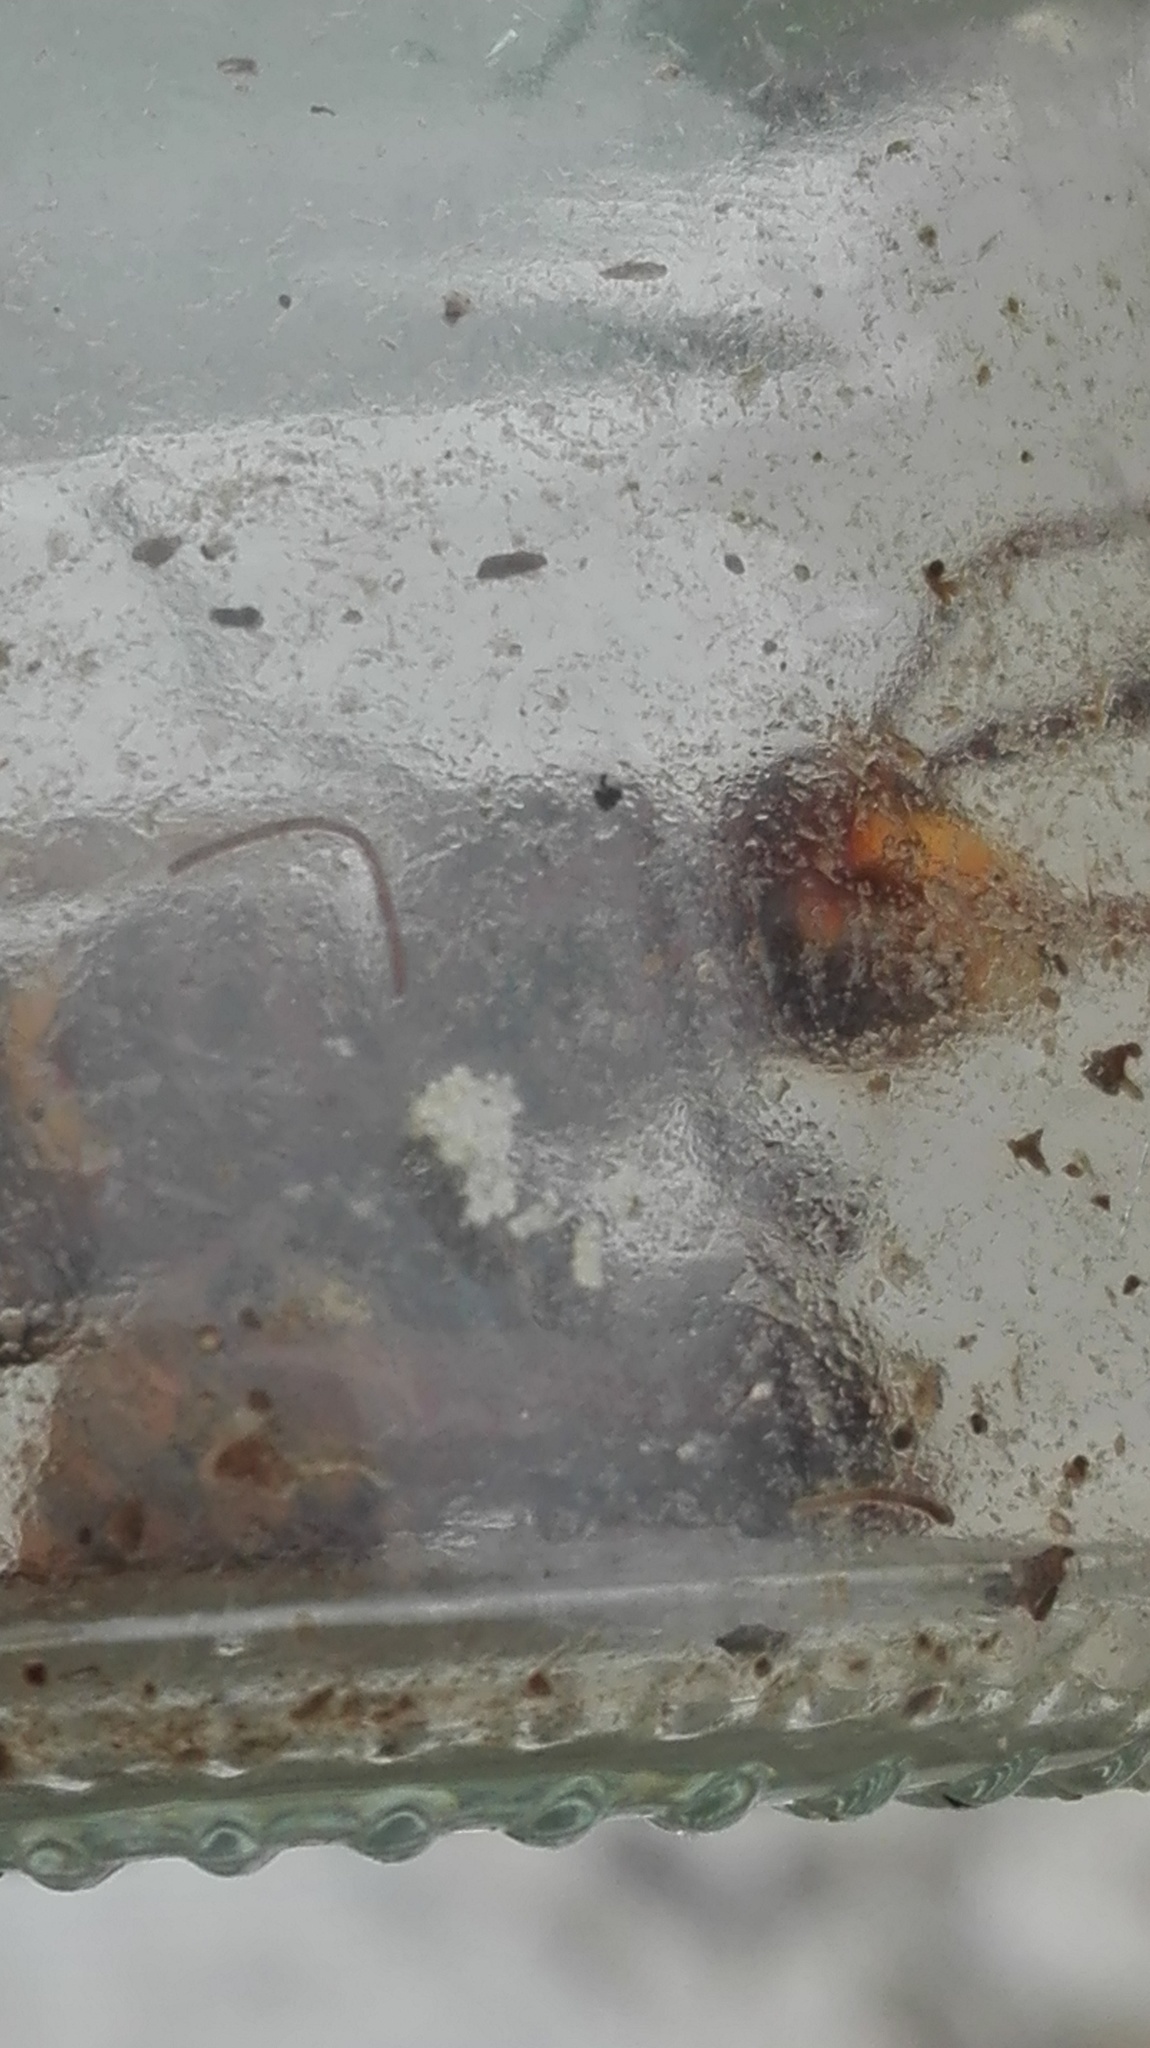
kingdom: Animalia
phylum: Arthropoda
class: Insecta
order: Hymenoptera
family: Vespidae
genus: Vespa
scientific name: Vespa crabro
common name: Hornet
